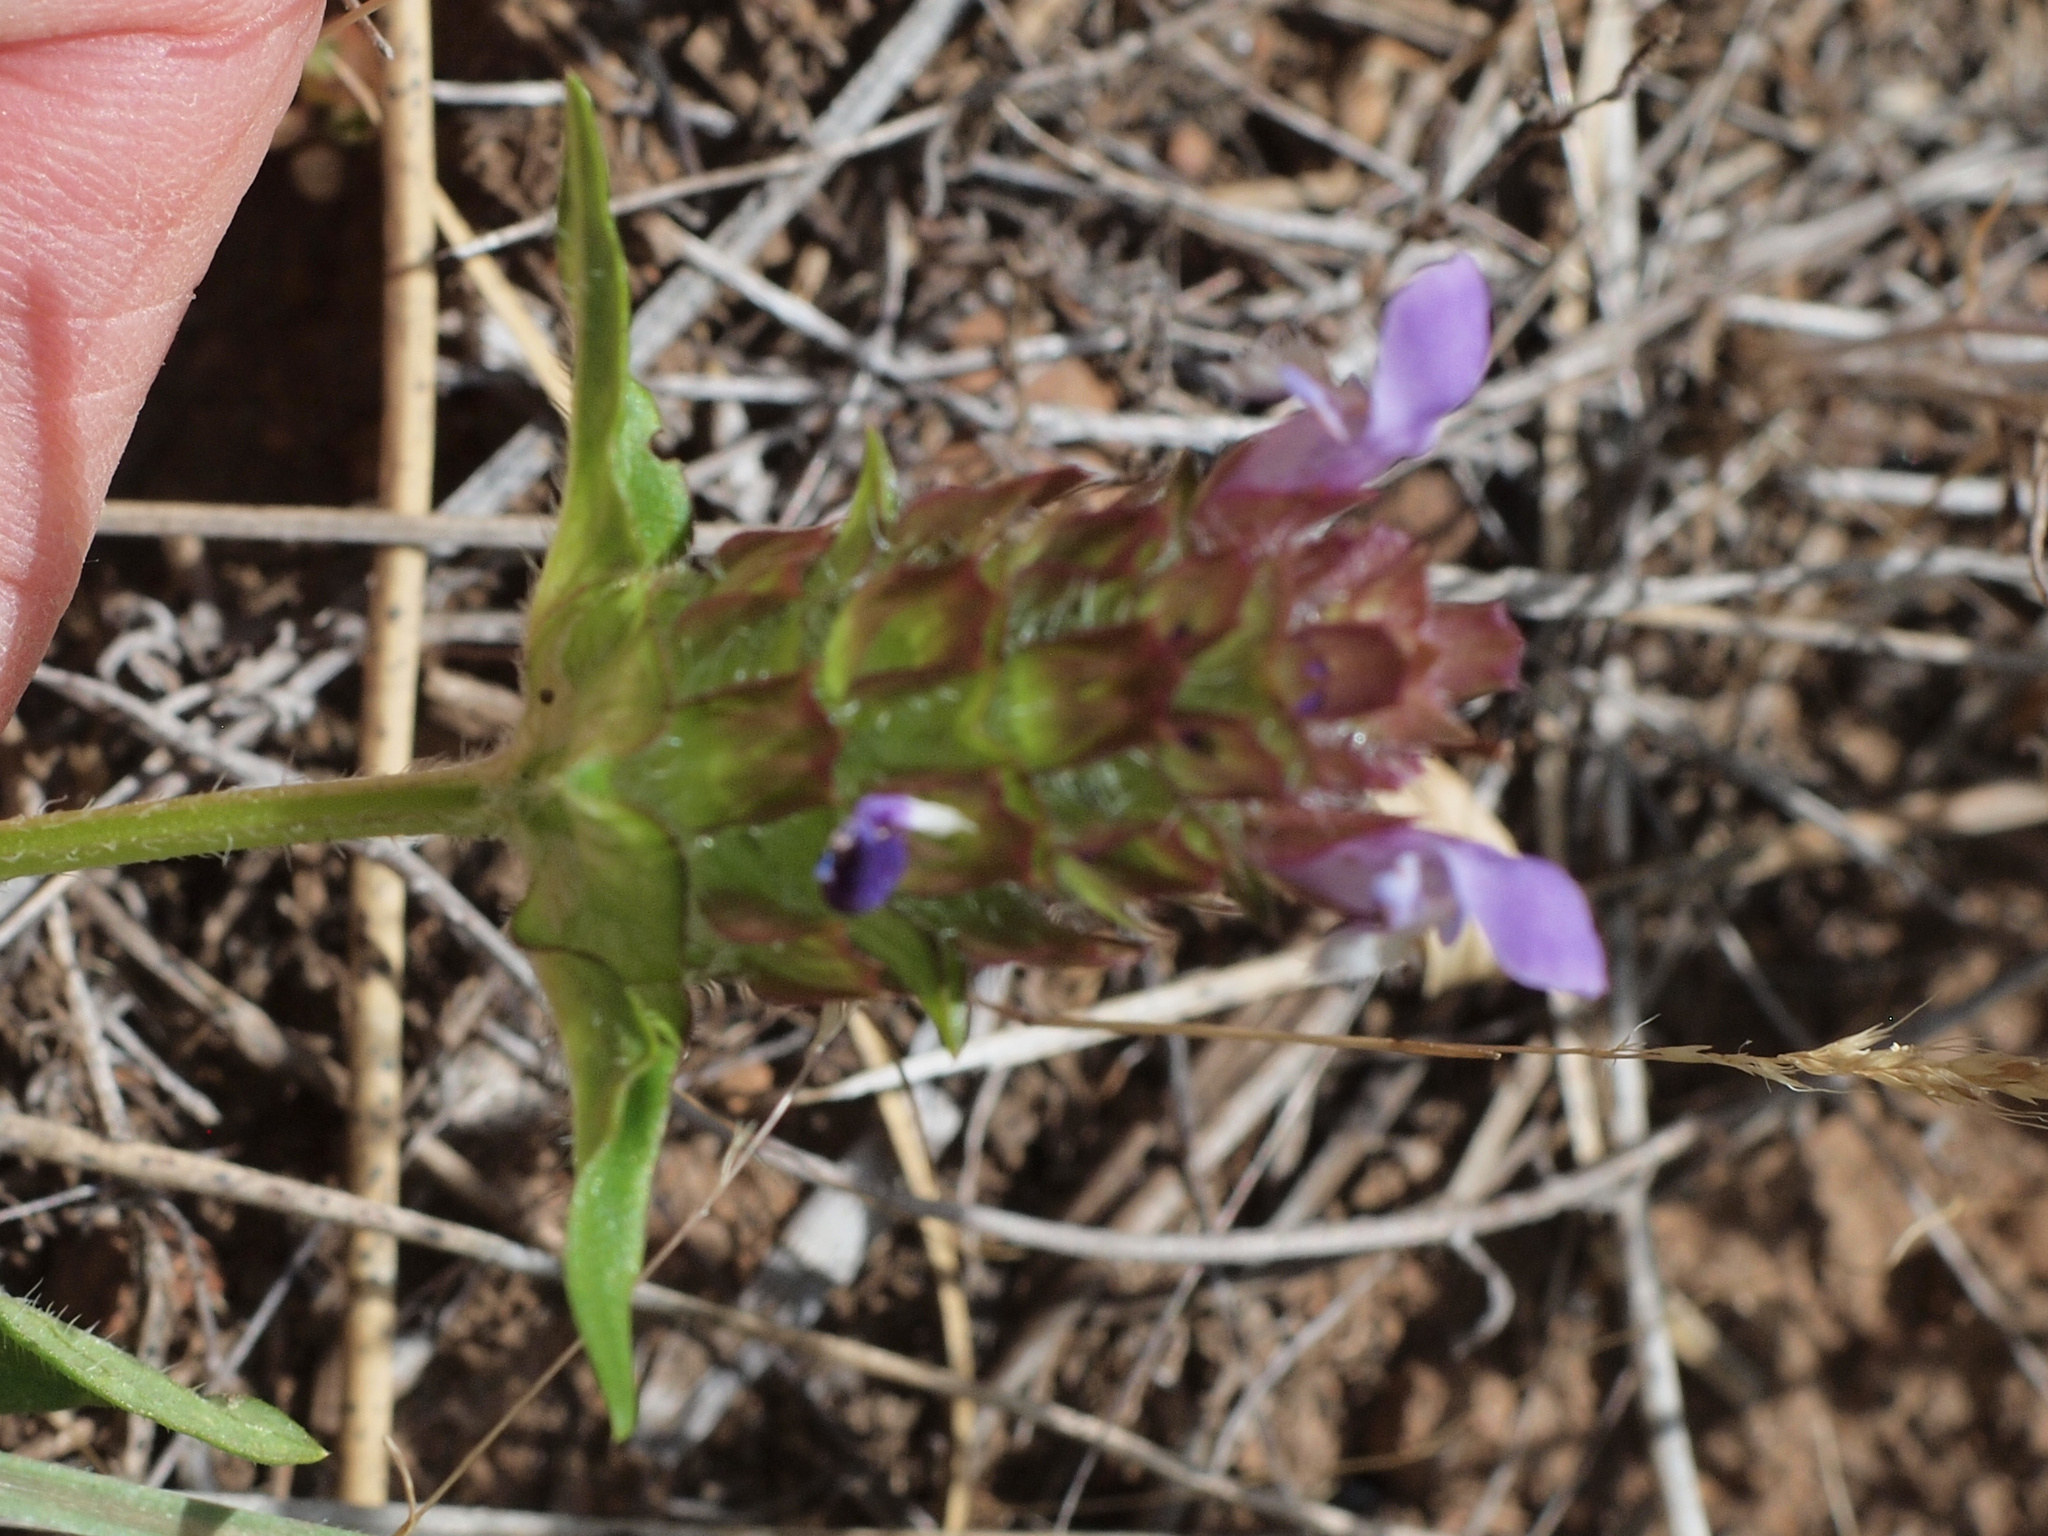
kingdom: Plantae
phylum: Tracheophyta
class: Magnoliopsida
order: Lamiales
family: Lamiaceae
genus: Prunella
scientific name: Prunella vulgaris
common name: Heal-all
